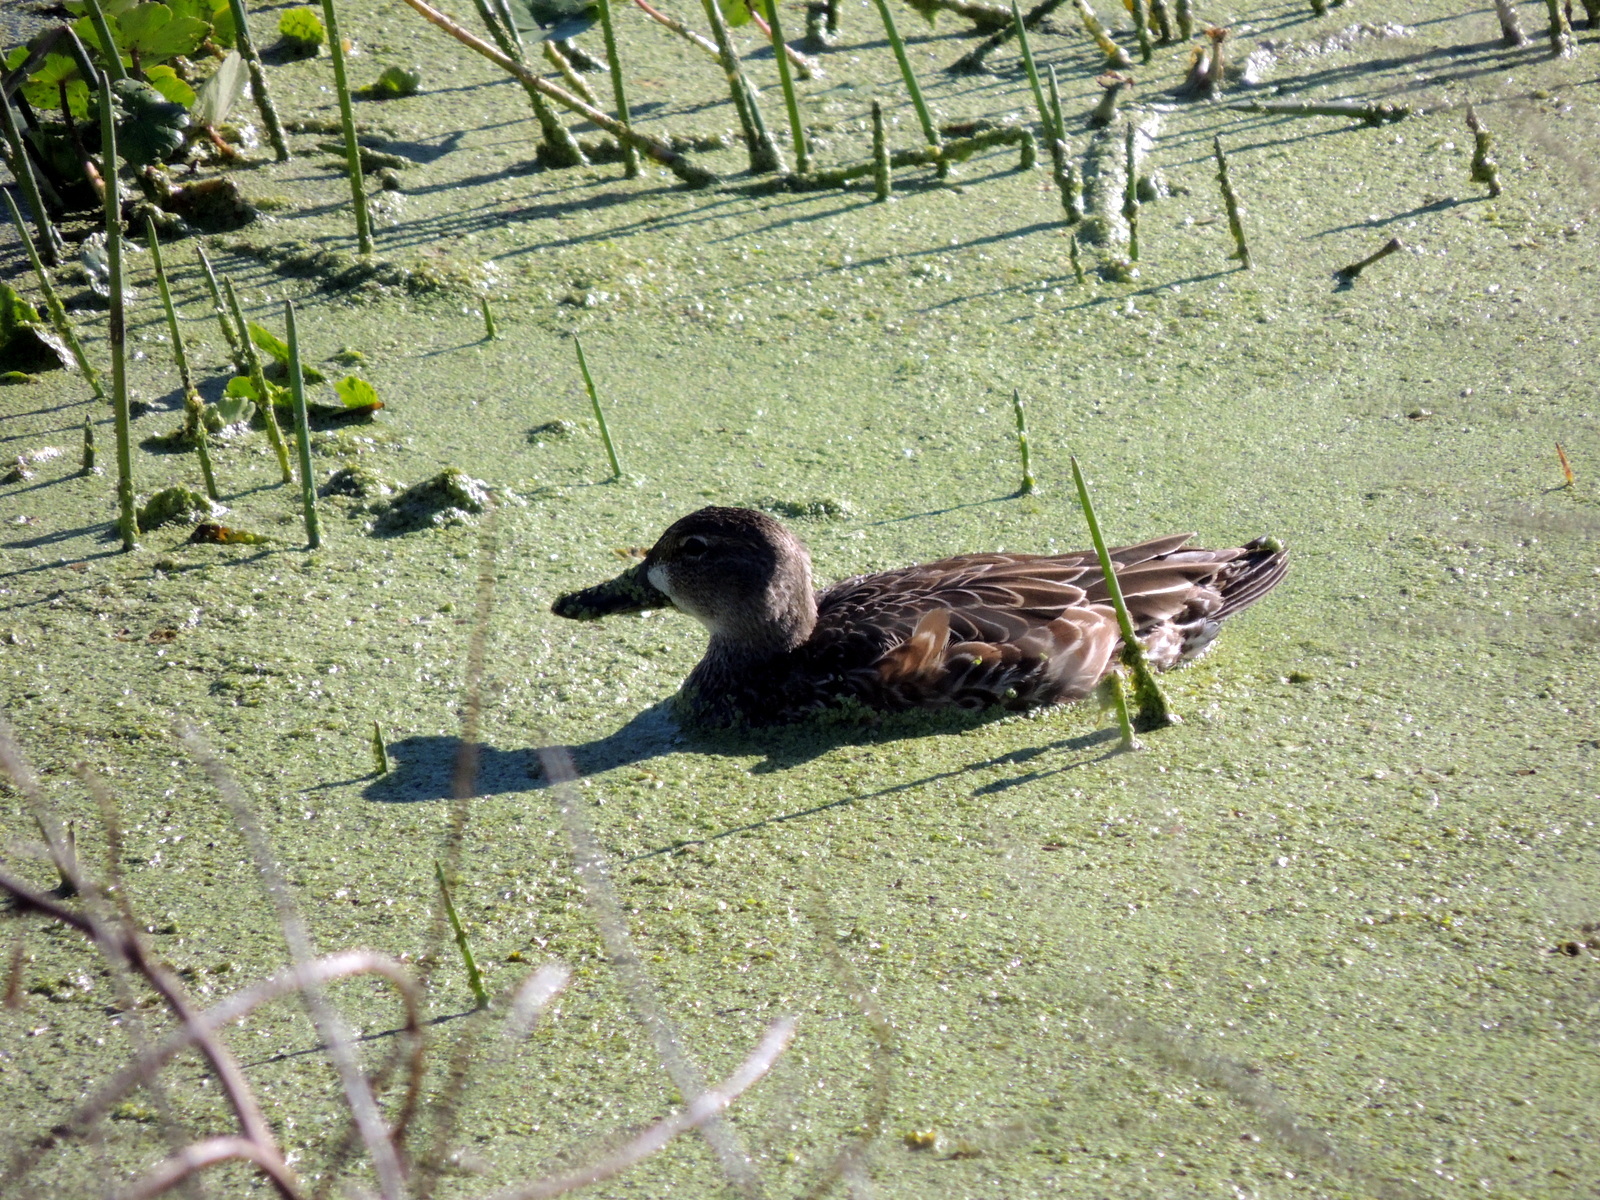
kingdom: Animalia
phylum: Chordata
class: Aves
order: Anseriformes
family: Anatidae
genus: Spatula
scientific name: Spatula discors
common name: Blue-winged teal
